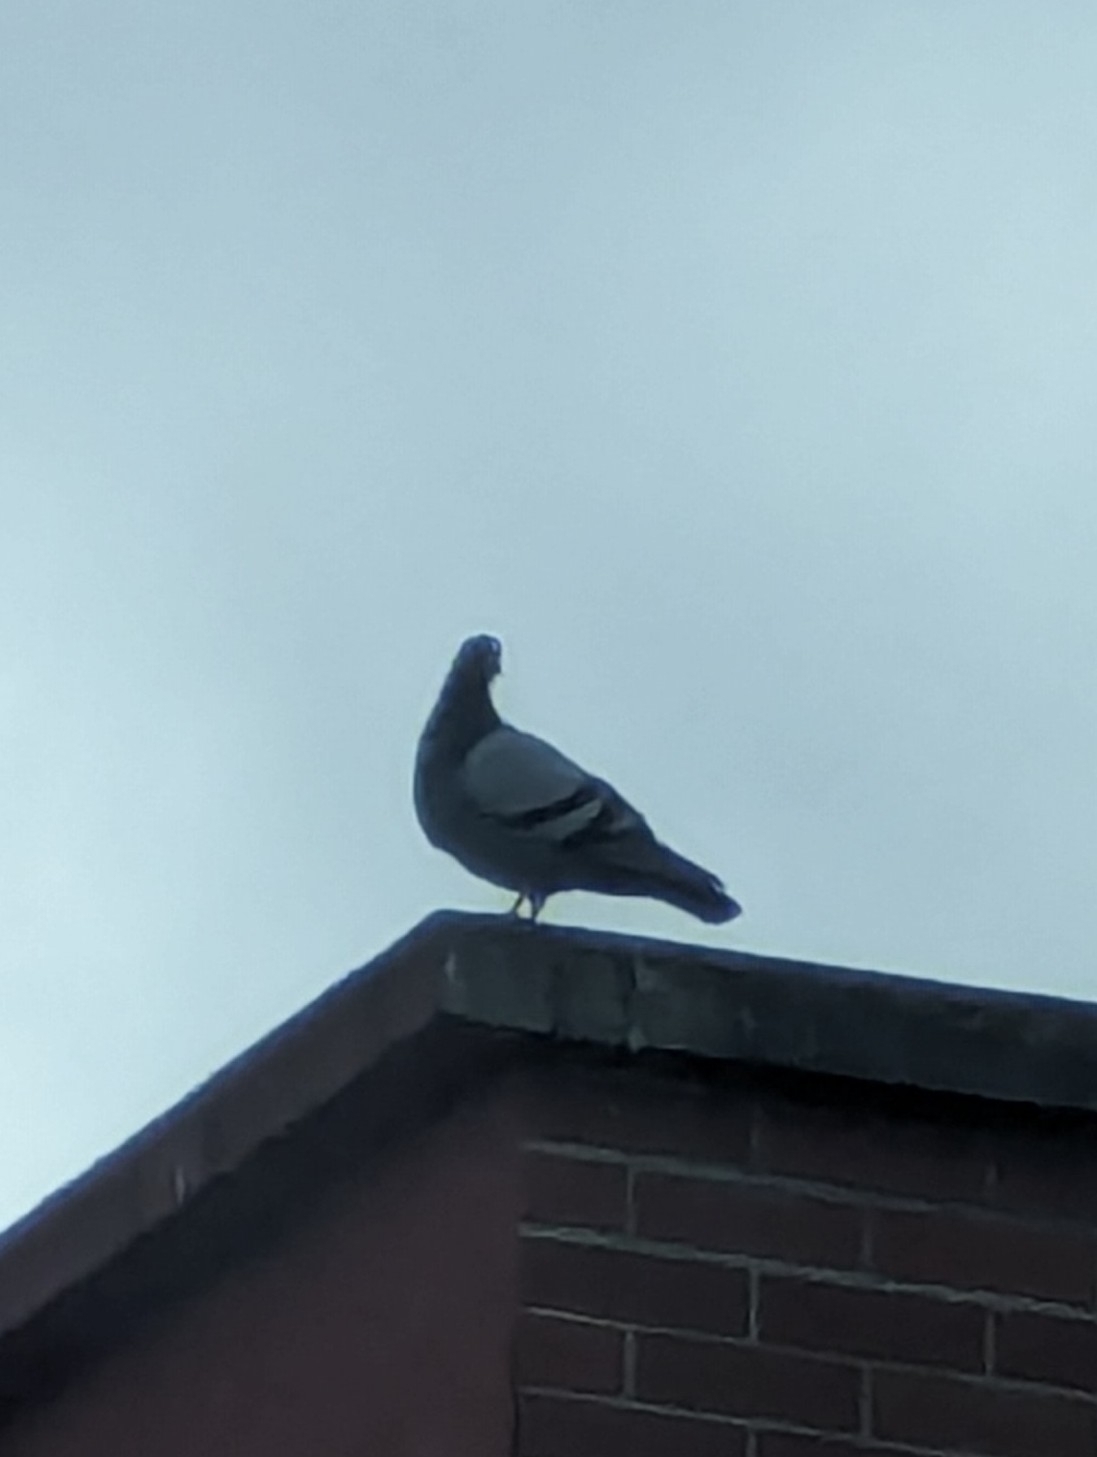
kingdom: Animalia
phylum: Chordata
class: Aves
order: Columbiformes
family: Columbidae
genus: Columba
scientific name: Columba livia
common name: Rock pigeon
